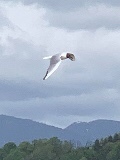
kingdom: Animalia
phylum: Chordata
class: Aves
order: Charadriiformes
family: Laridae
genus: Chroicocephalus
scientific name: Chroicocephalus philadelphia
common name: Bonaparte's gull
